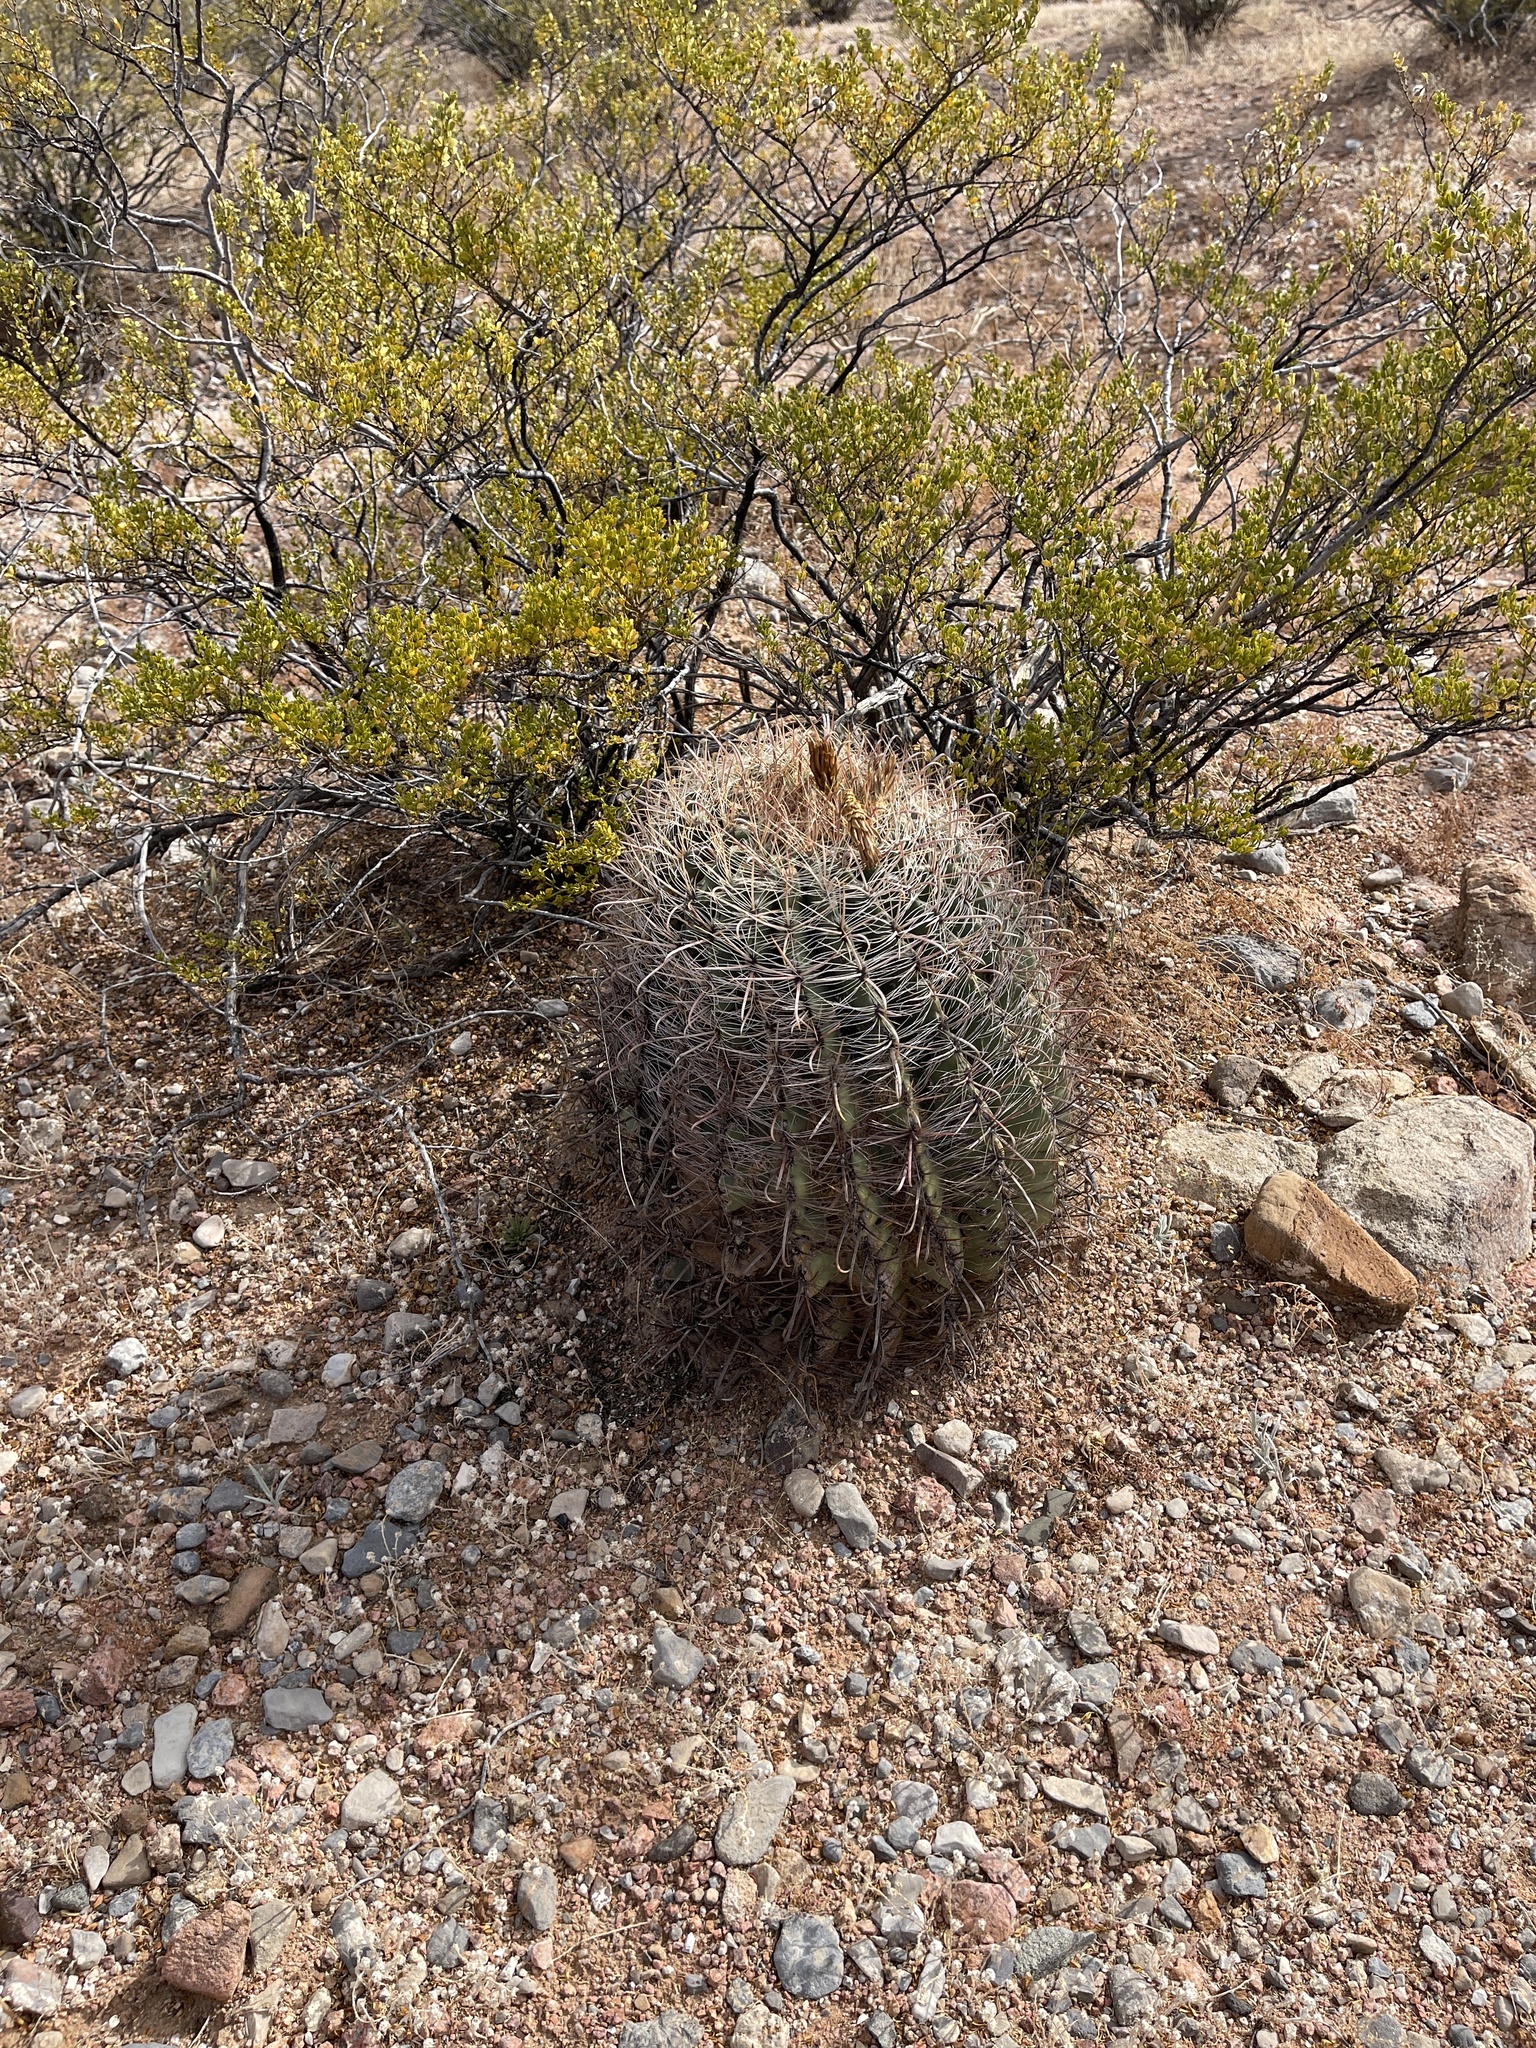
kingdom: Plantae
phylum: Tracheophyta
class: Magnoliopsida
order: Caryophyllales
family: Cactaceae
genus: Ferocactus
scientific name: Ferocactus wislizeni
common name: Candy barrel cactus
